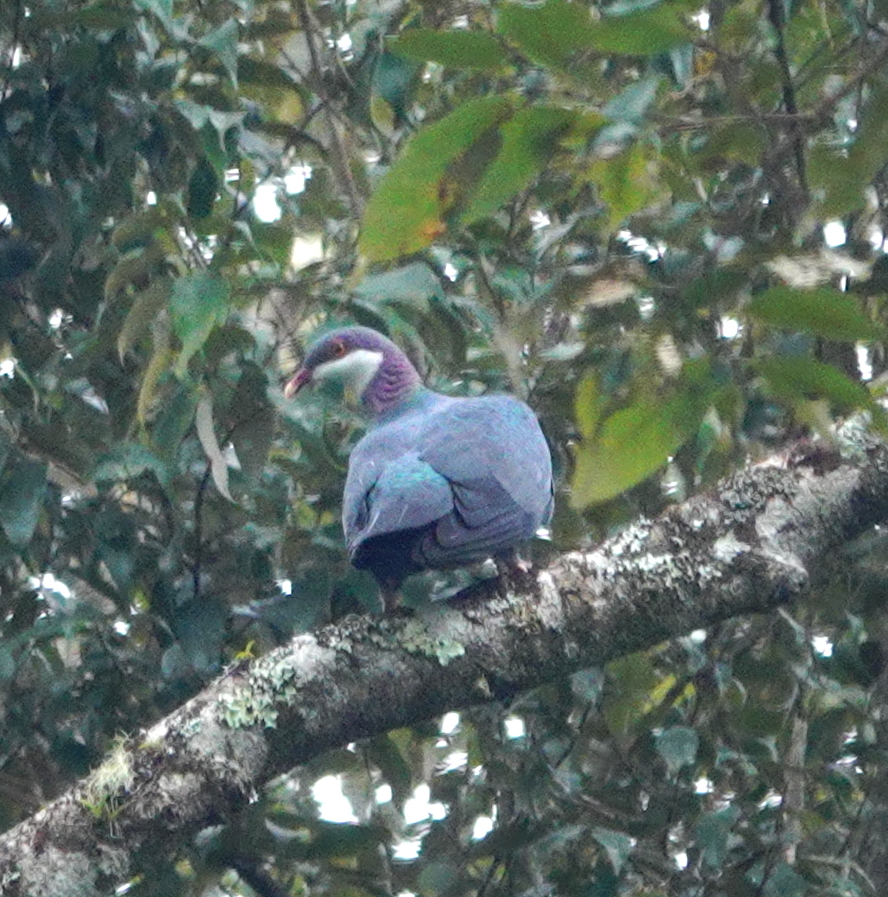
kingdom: Animalia
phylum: Chordata
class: Aves
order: Columbiformes
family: Columbidae
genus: Columba
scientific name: Columba vitiensis
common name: Metallic pigeon
